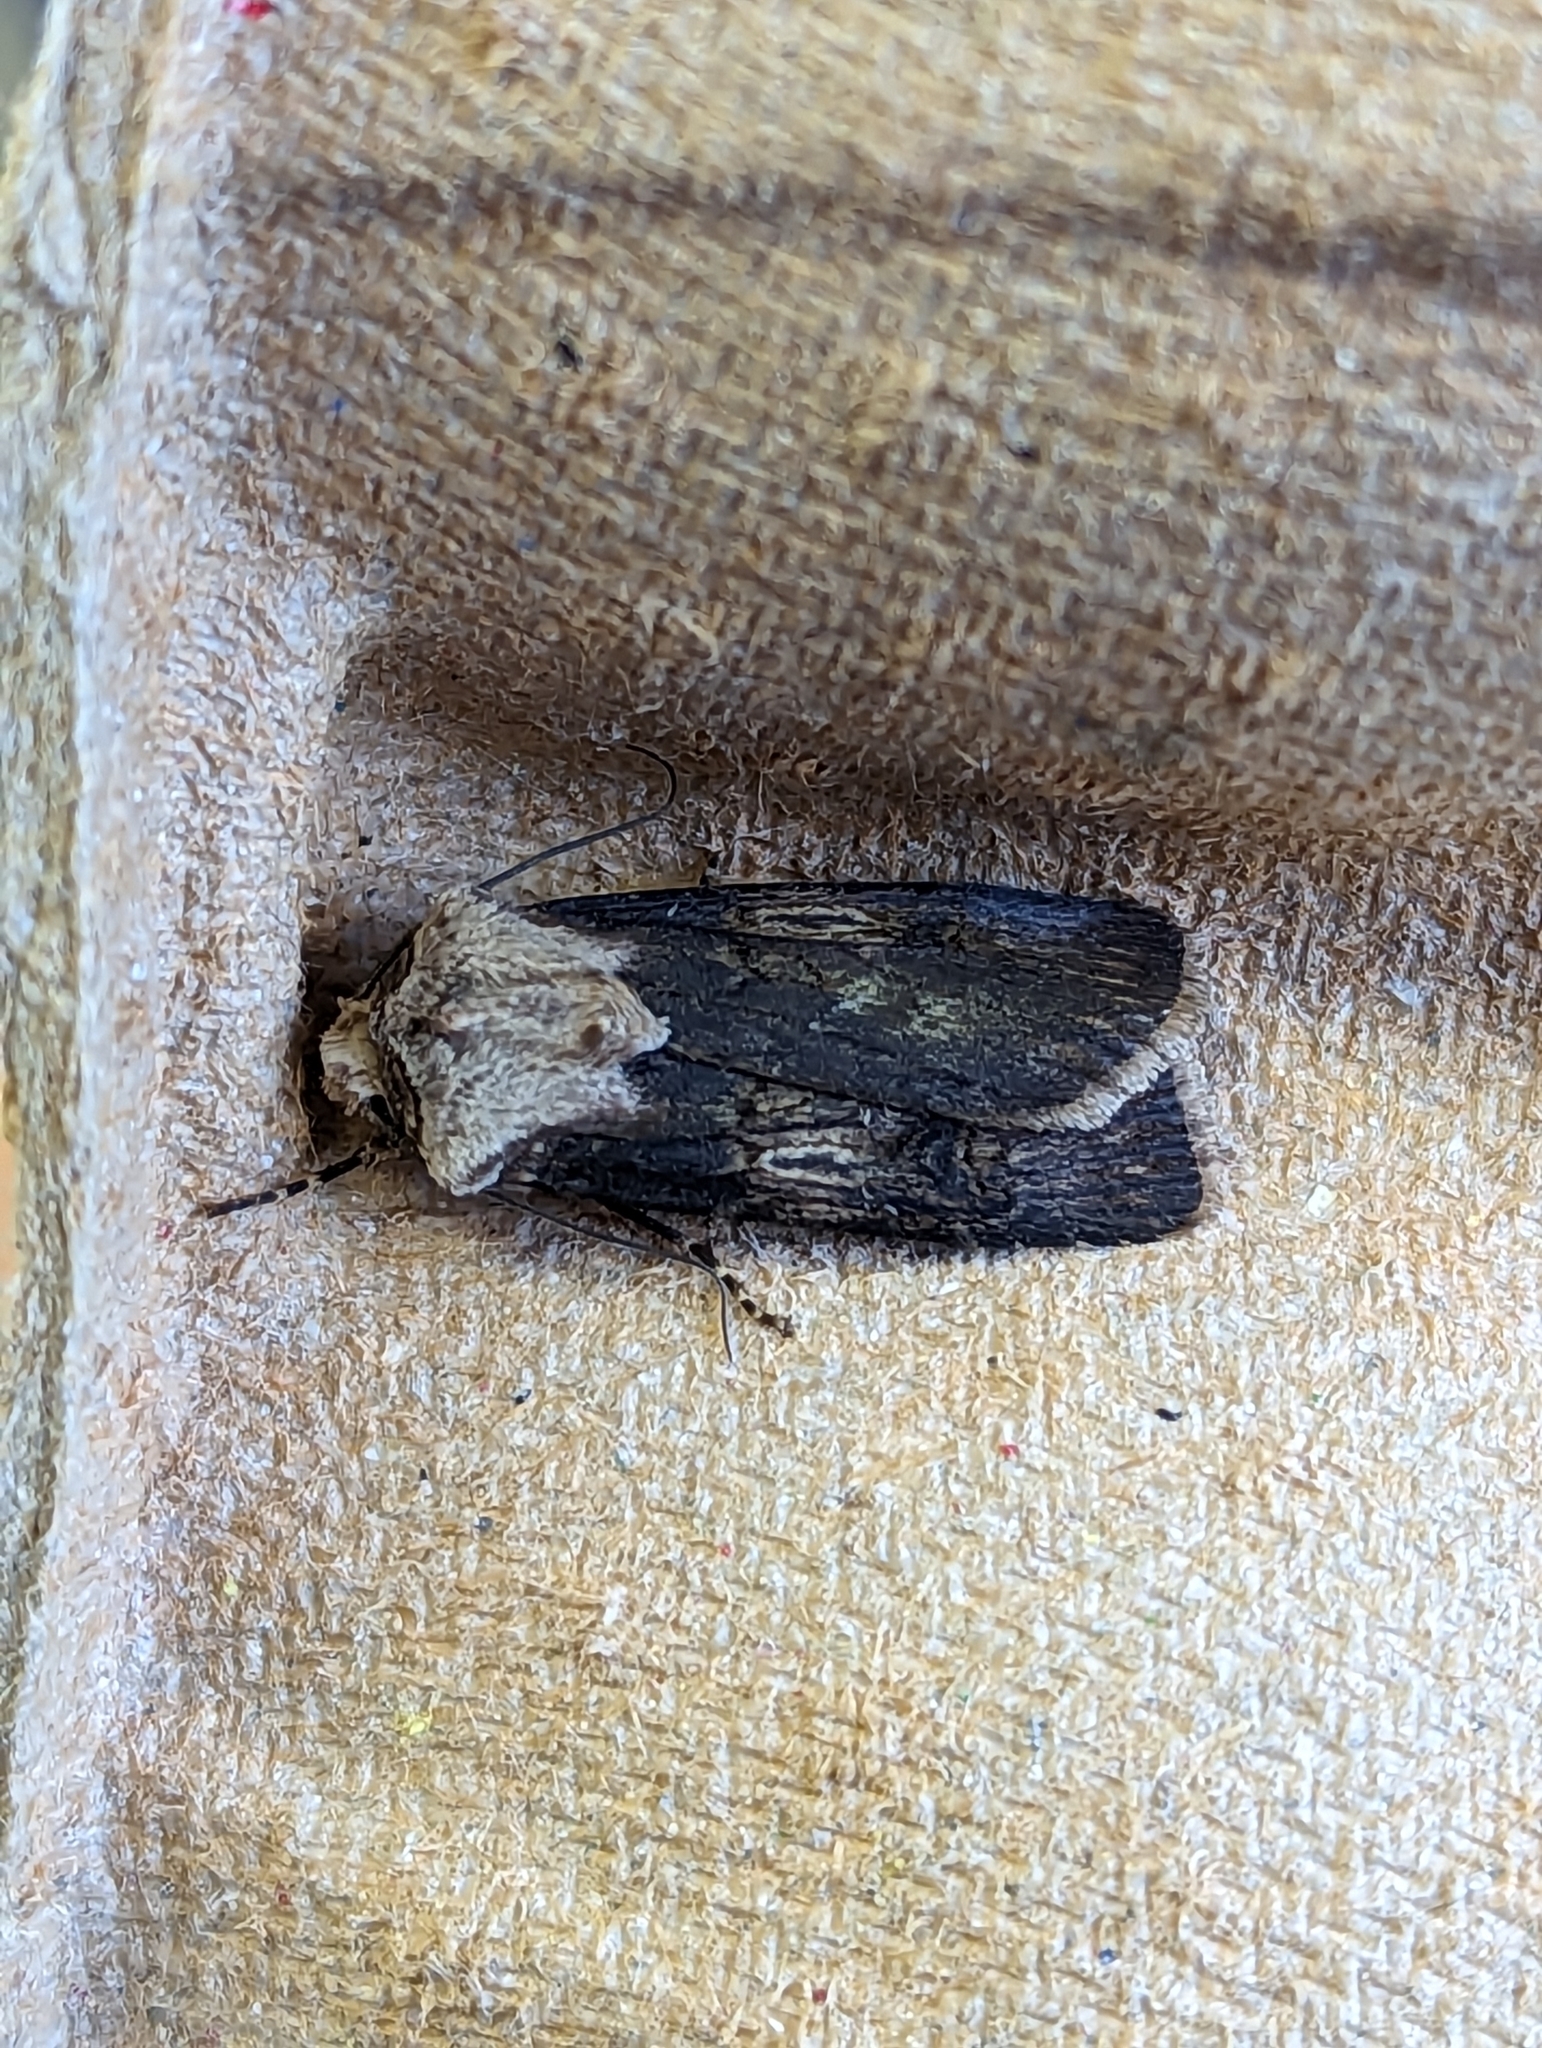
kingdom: Animalia
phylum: Arthropoda
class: Insecta
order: Lepidoptera
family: Noctuidae
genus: Agrotis
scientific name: Agrotis puta
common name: Shuttle-shaped dart
